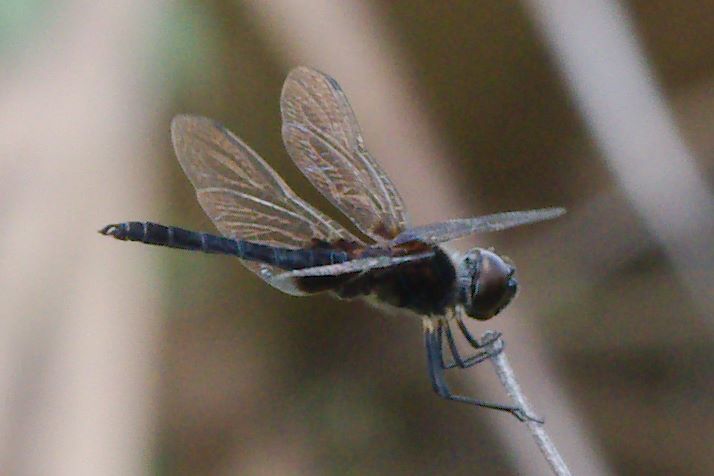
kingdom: Animalia
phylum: Arthropoda
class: Insecta
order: Odonata
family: Libellulidae
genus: Macrodiplax
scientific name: Macrodiplax balteata
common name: Marl pennant
